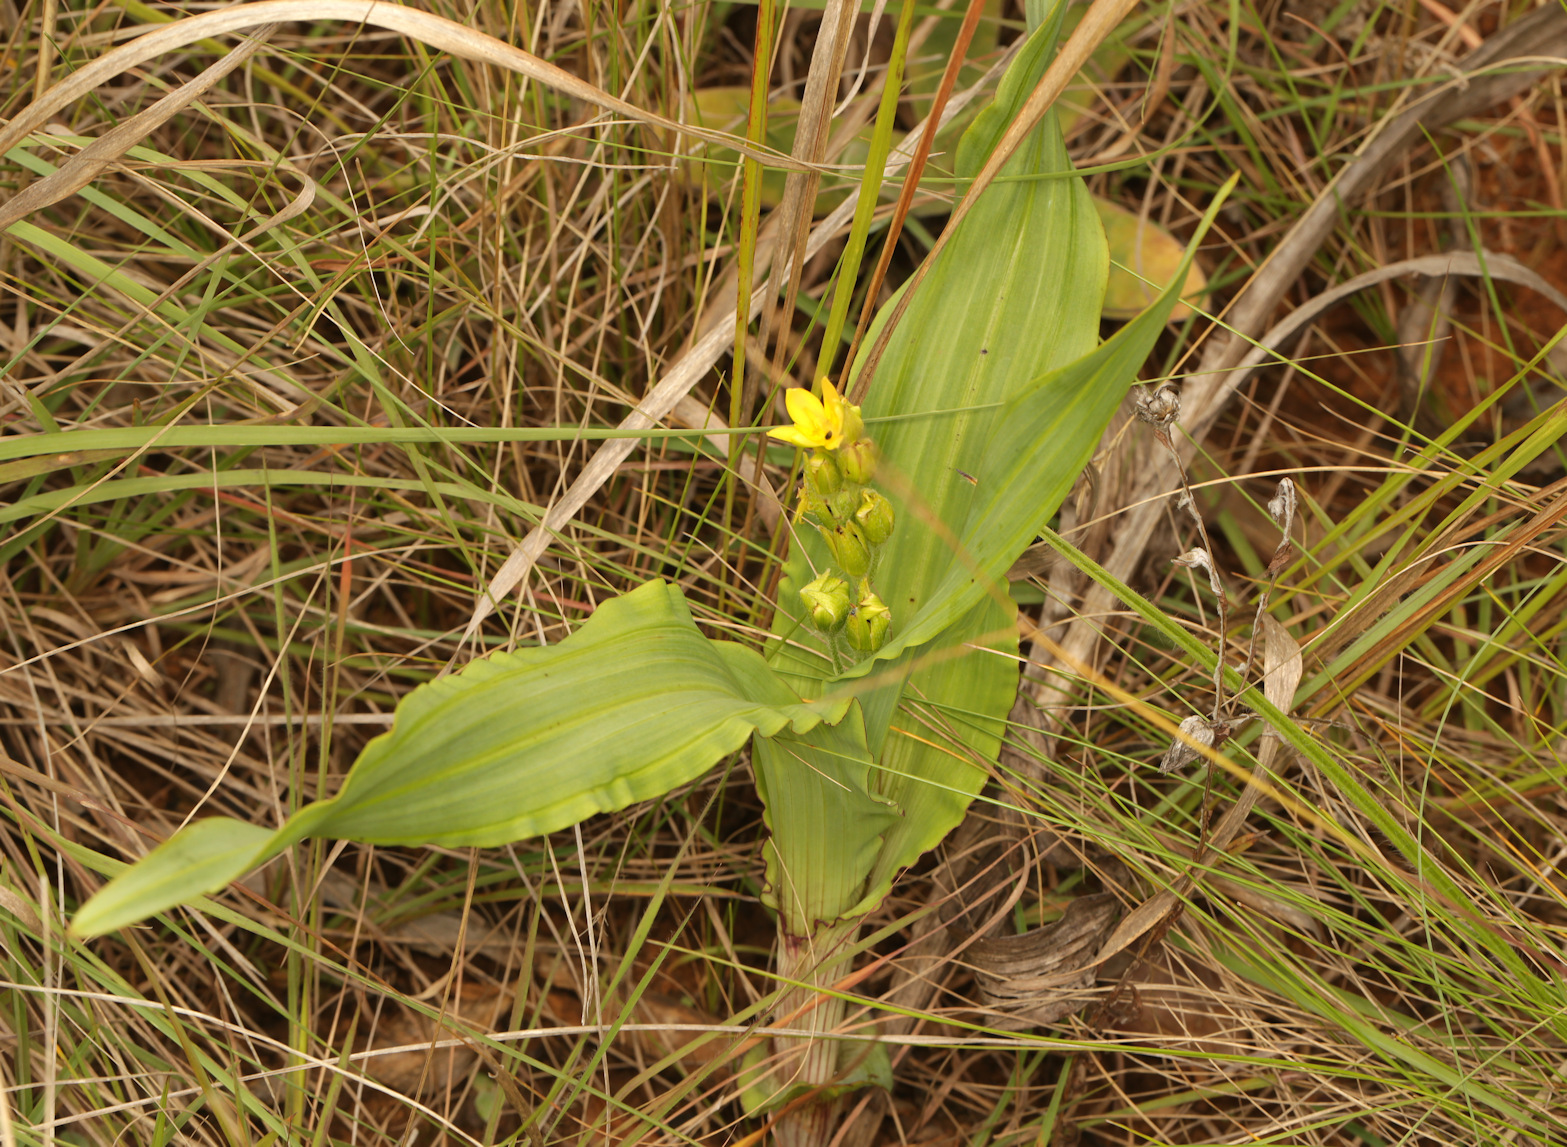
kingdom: Plantae
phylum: Tracheophyta
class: Liliopsida
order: Asparagales
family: Hypoxidaceae
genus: Hypoxis
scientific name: Hypoxis colchicifolia
